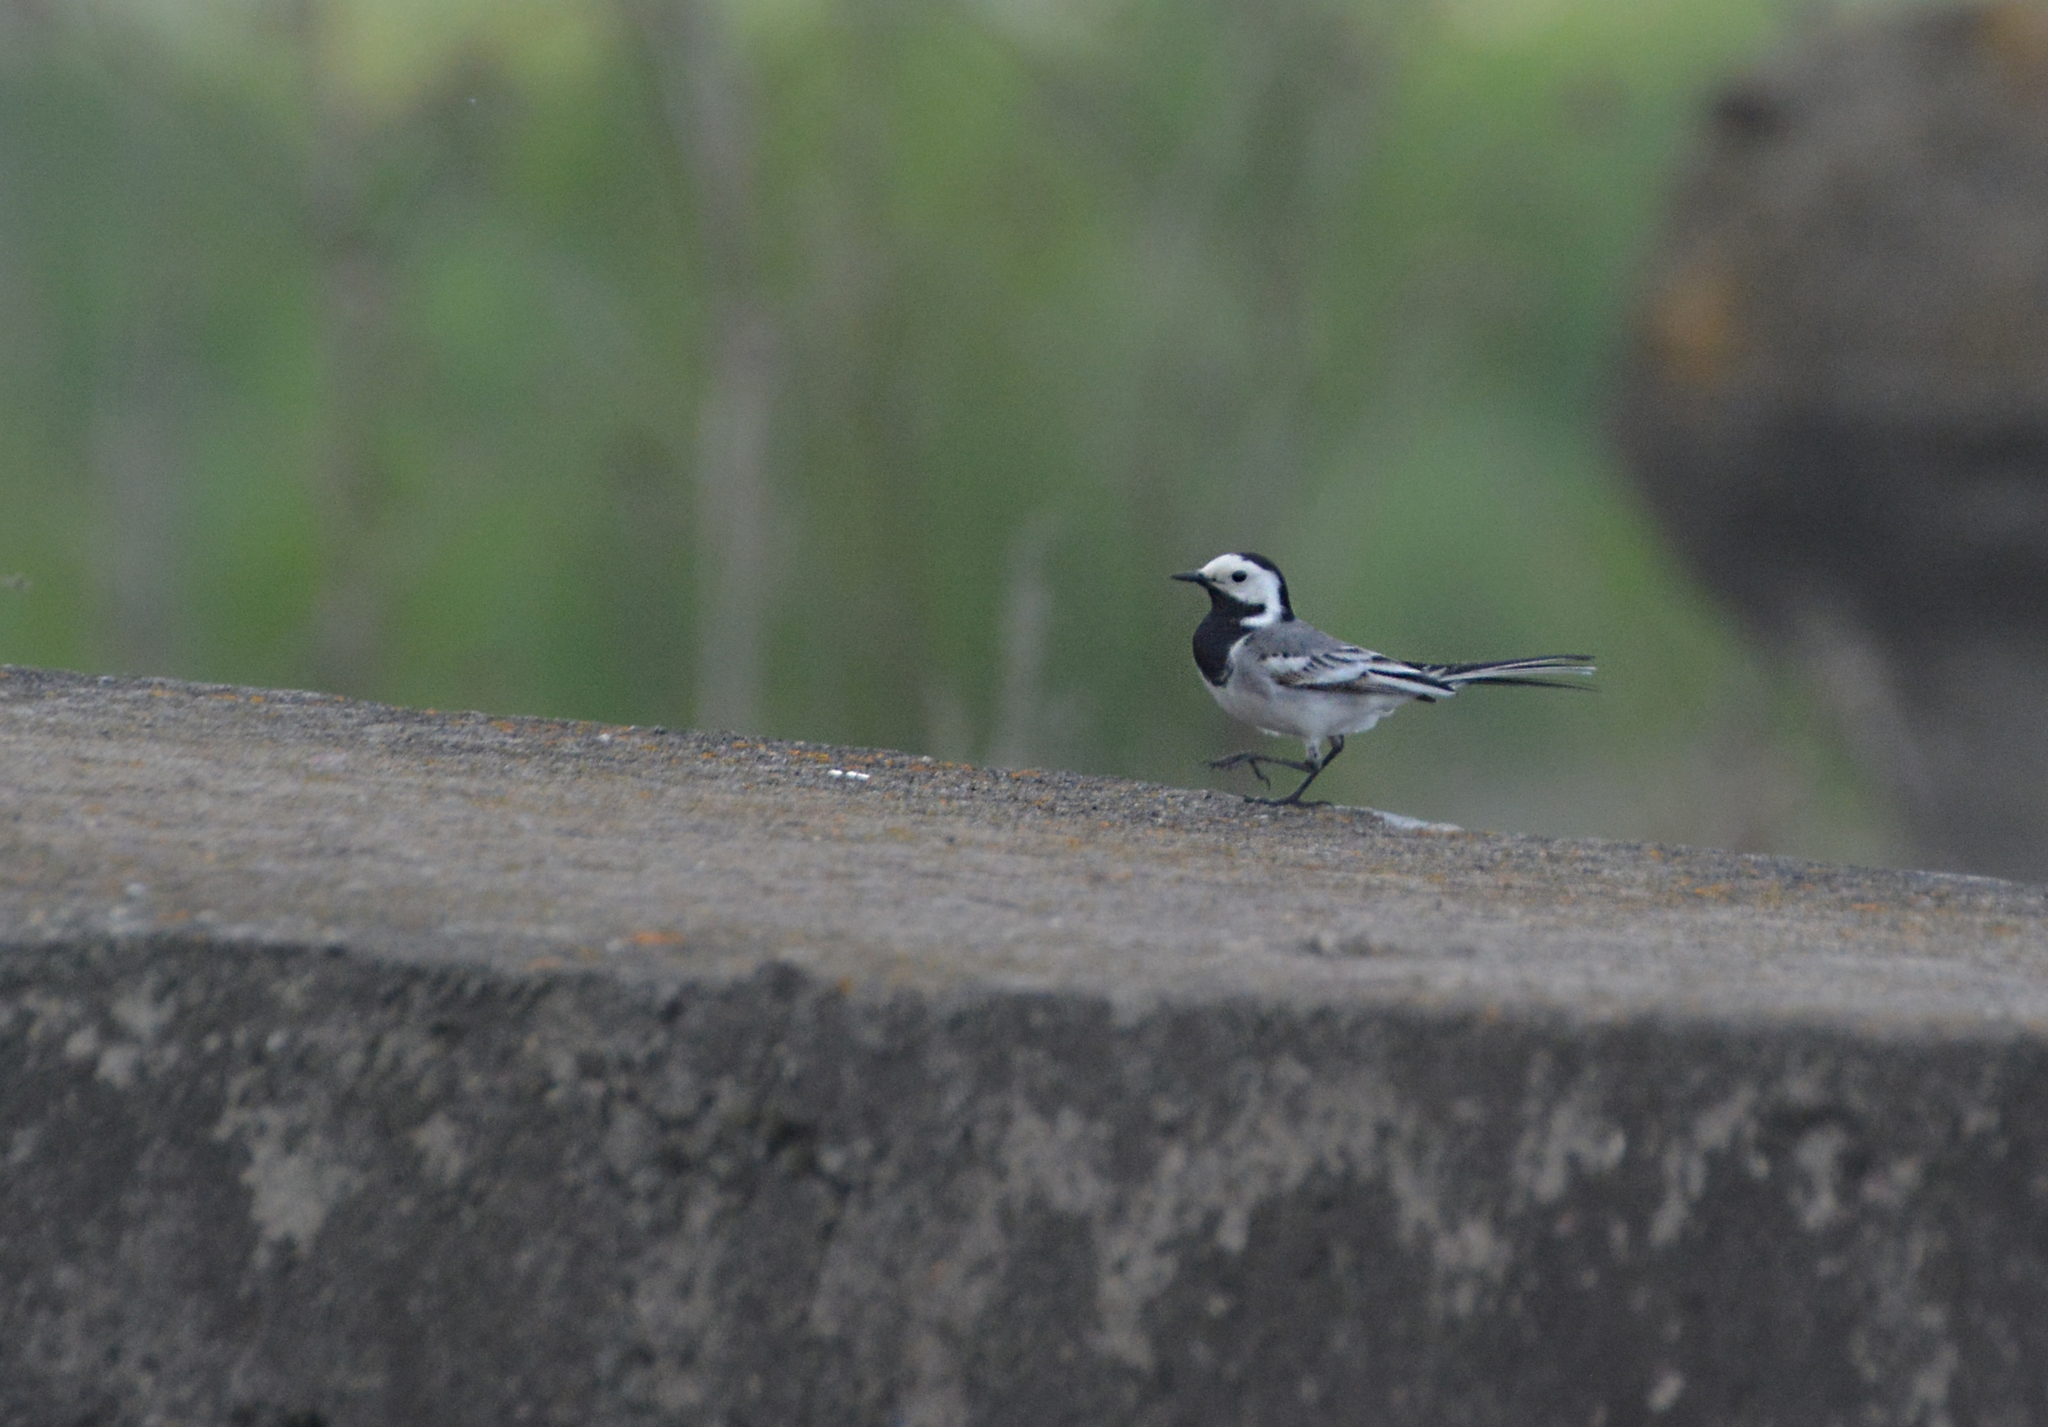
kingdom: Animalia
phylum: Chordata
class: Aves
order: Passeriformes
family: Motacillidae
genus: Motacilla
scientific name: Motacilla alba
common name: White wagtail
